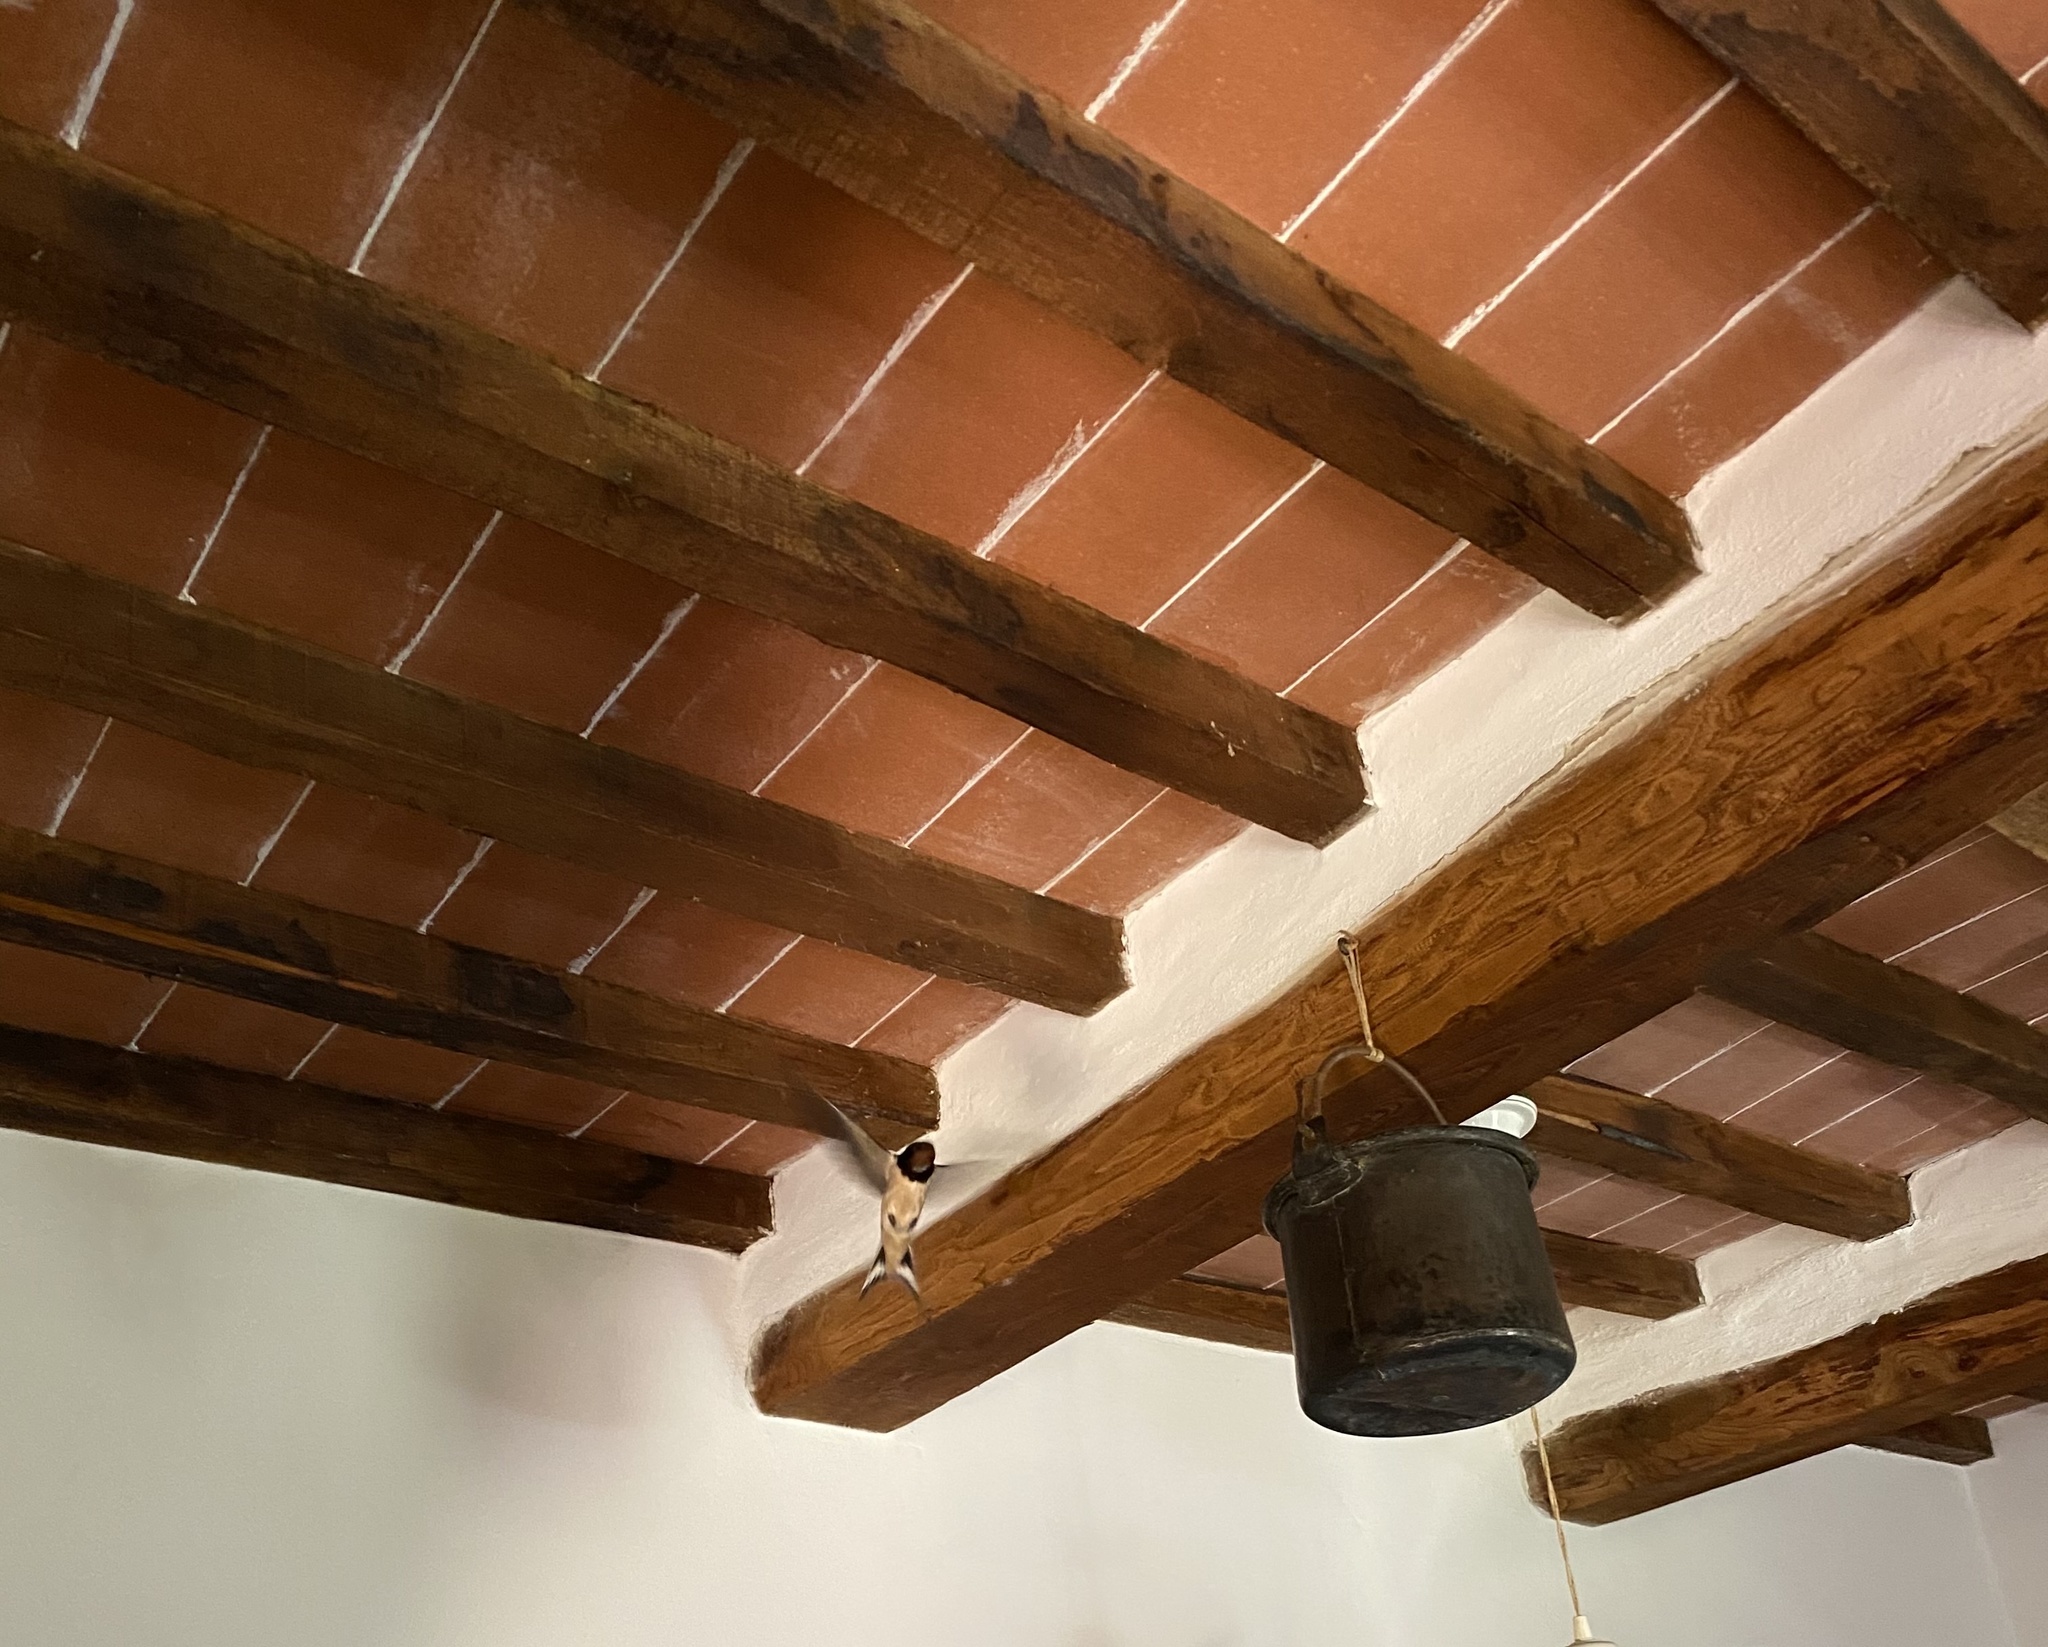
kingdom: Animalia
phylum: Chordata
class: Aves
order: Passeriformes
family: Hirundinidae
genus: Hirundo
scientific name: Hirundo rustica
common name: Barn swallow
